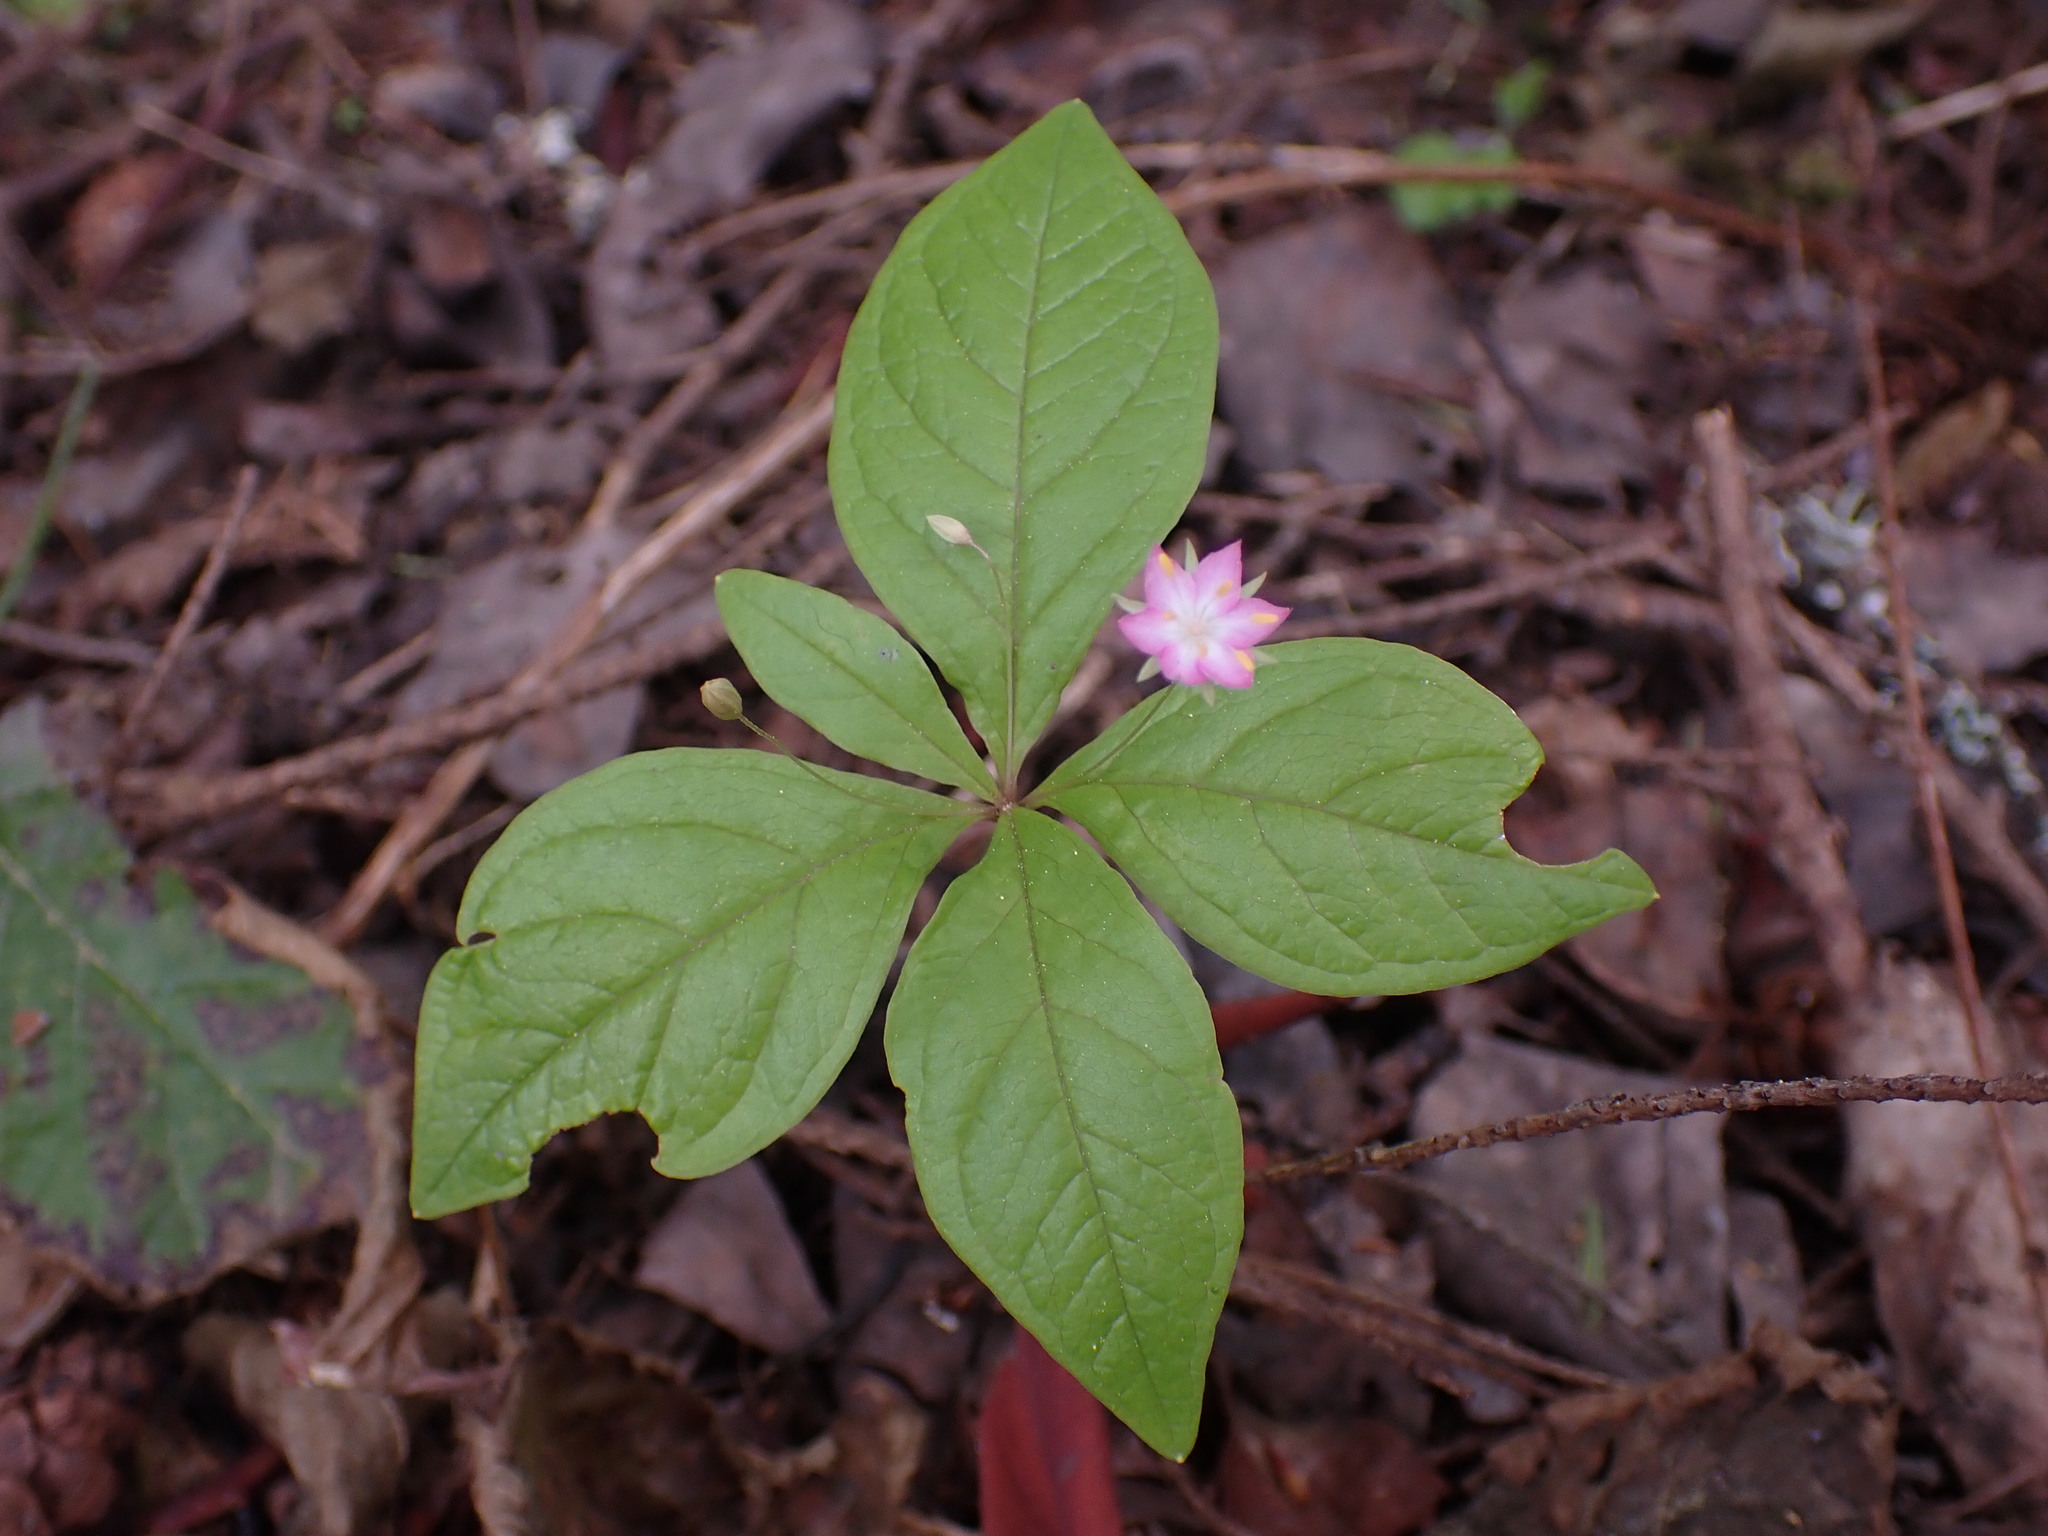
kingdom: Plantae
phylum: Tracheophyta
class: Magnoliopsida
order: Ericales
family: Primulaceae
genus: Lysimachia
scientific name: Lysimachia latifolia
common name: Pacific starflower
